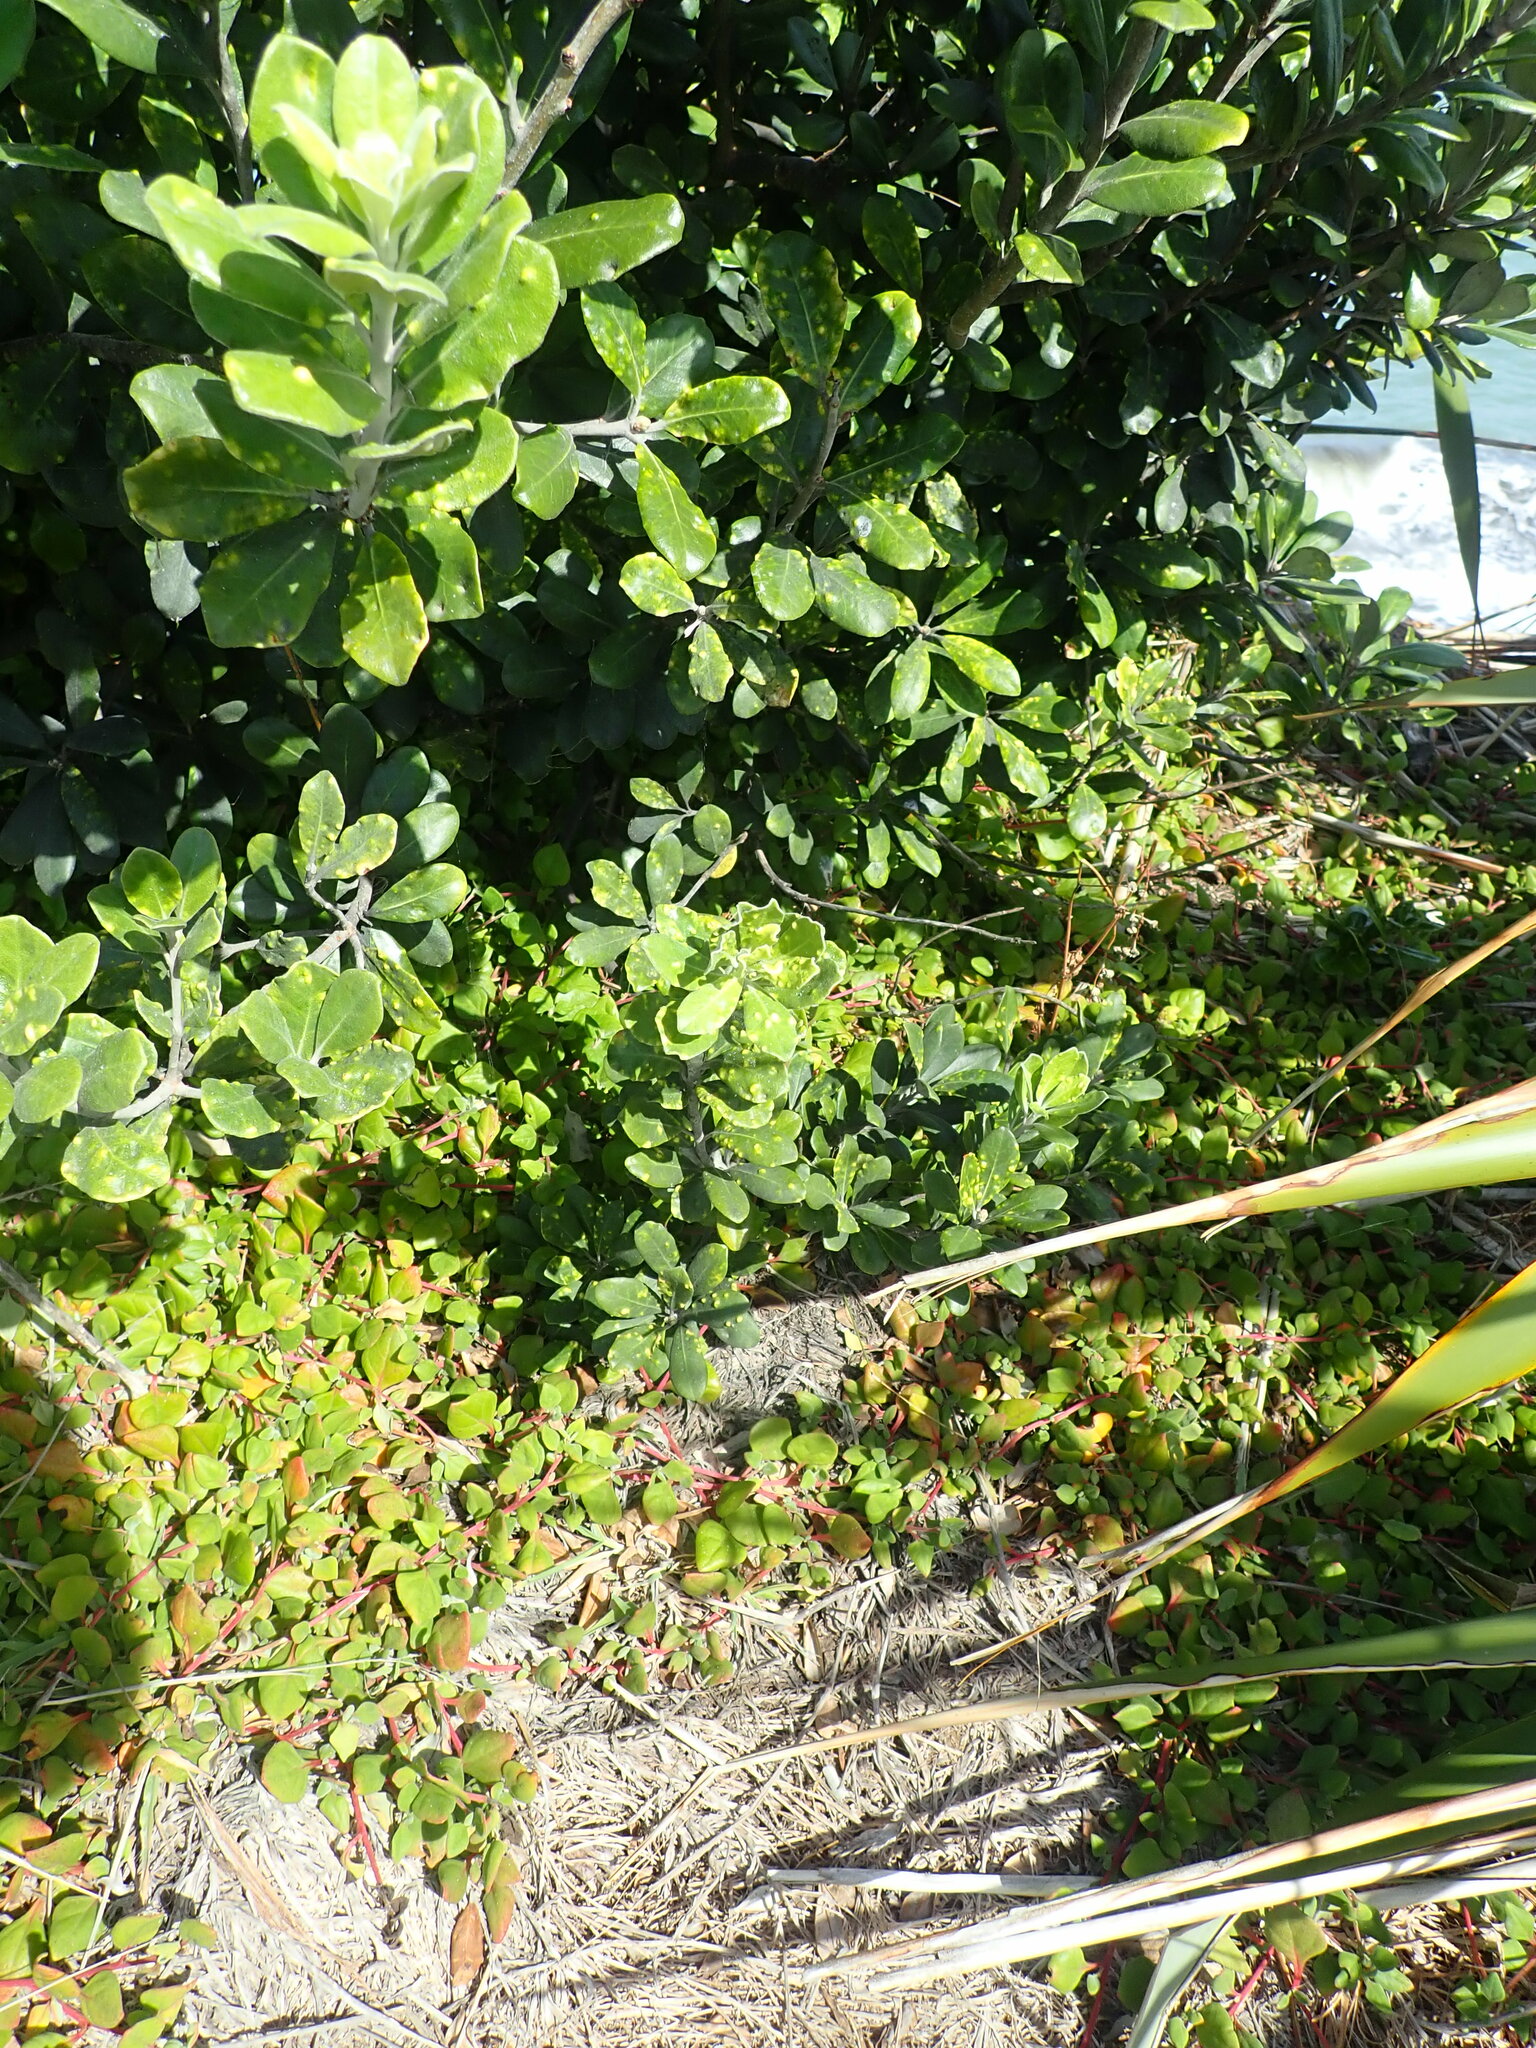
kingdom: Plantae
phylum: Tracheophyta
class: Magnoliopsida
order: Apiales
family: Pittosporaceae
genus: Pittosporum
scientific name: Pittosporum crassifolium
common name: Karo
